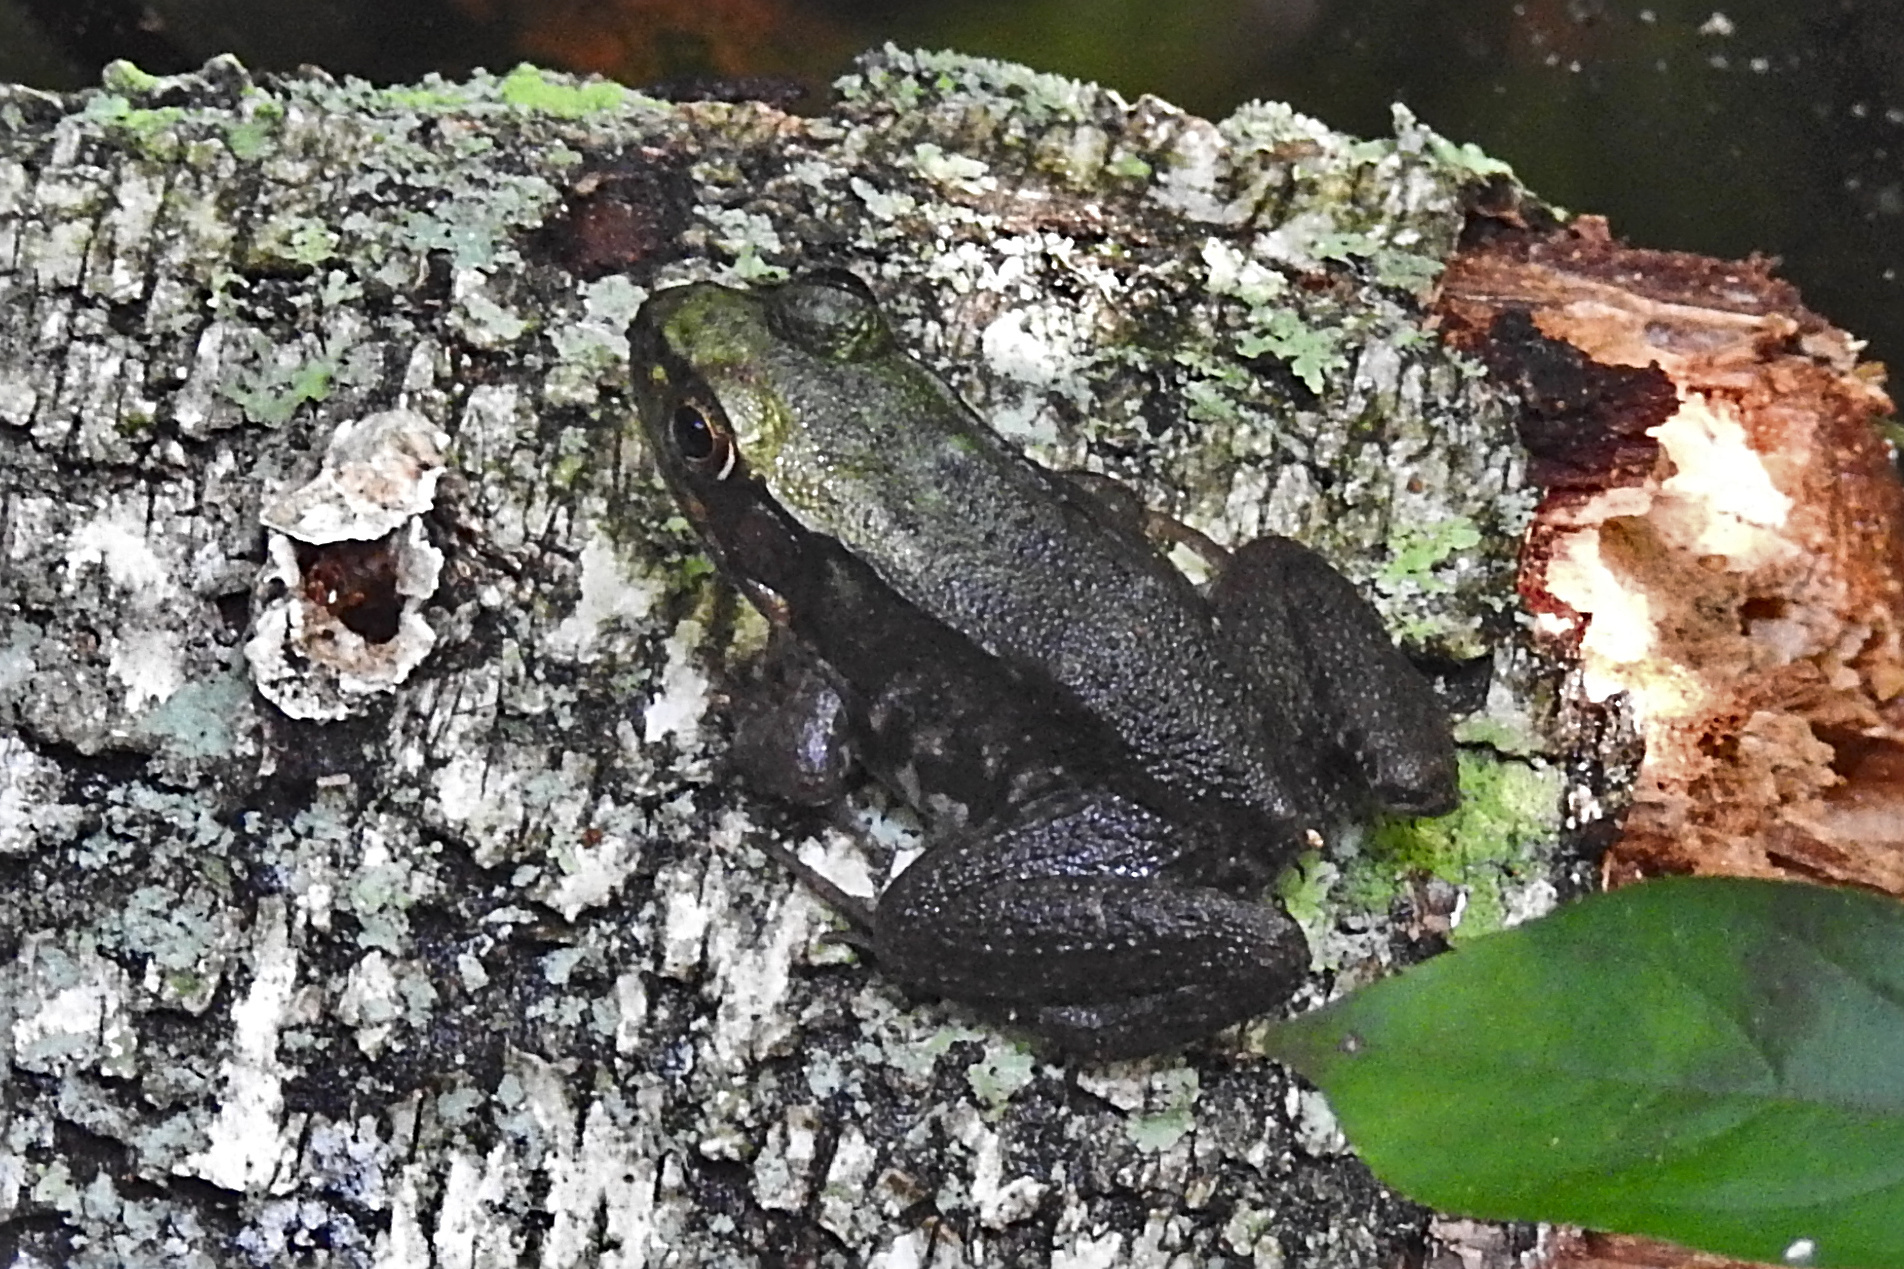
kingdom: Animalia
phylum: Chordata
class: Amphibia
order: Anura
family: Ranidae
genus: Lithobates
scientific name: Lithobates clamitans
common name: Green frog
